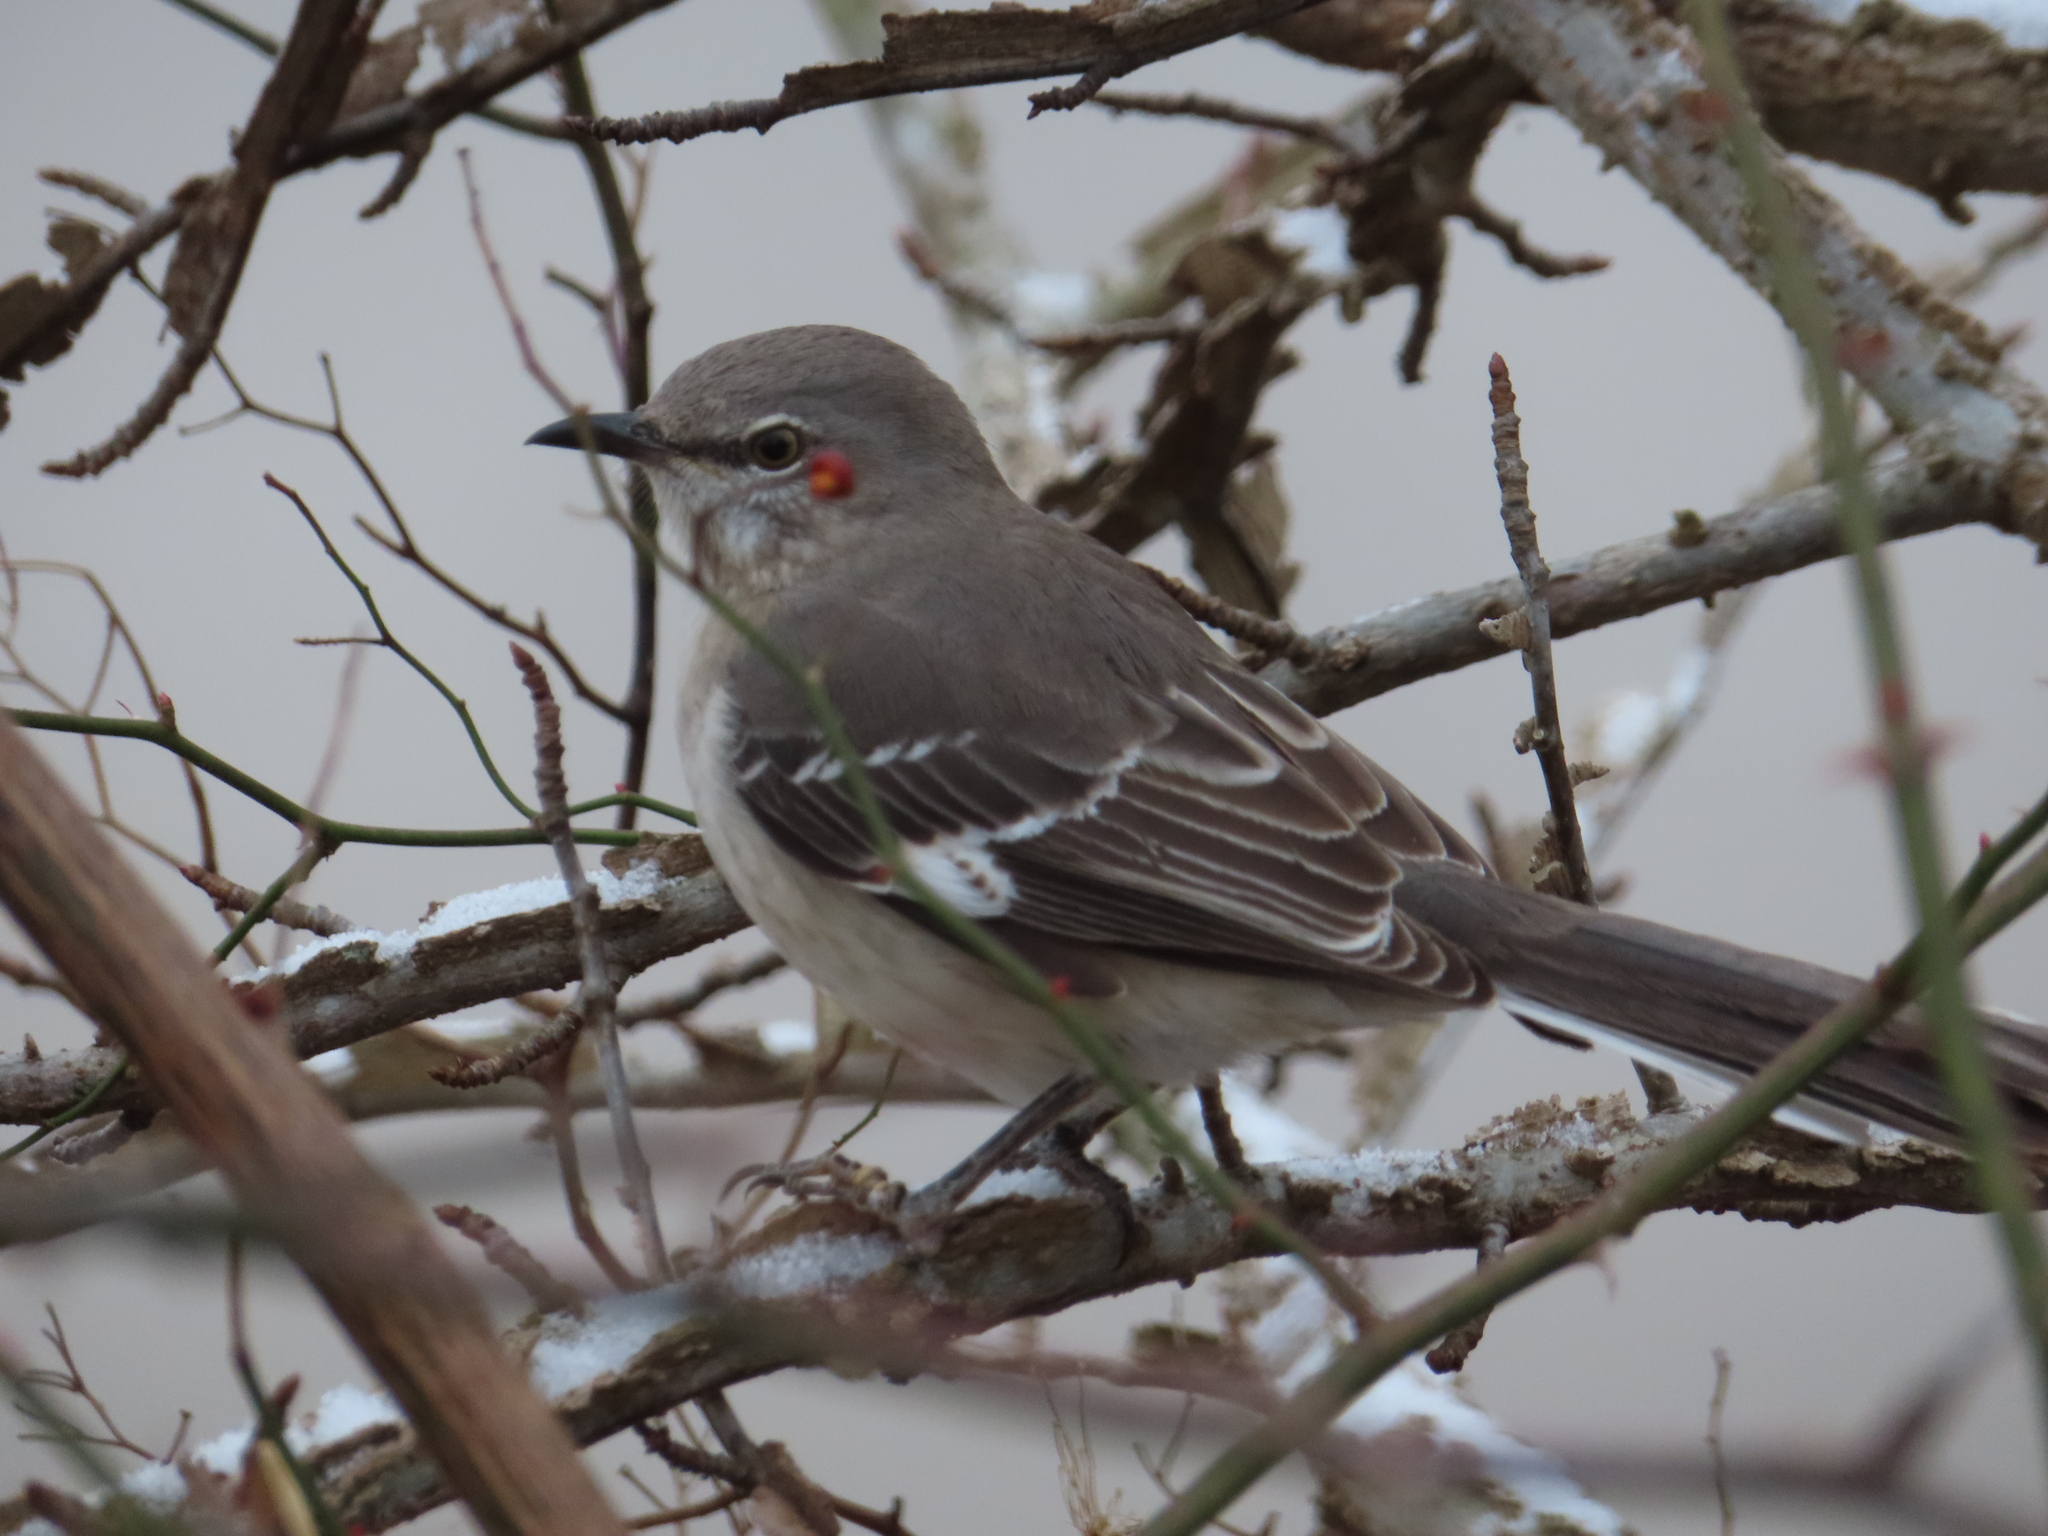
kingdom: Animalia
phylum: Chordata
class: Aves
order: Passeriformes
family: Mimidae
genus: Mimus
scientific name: Mimus polyglottos
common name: Northern mockingbird
